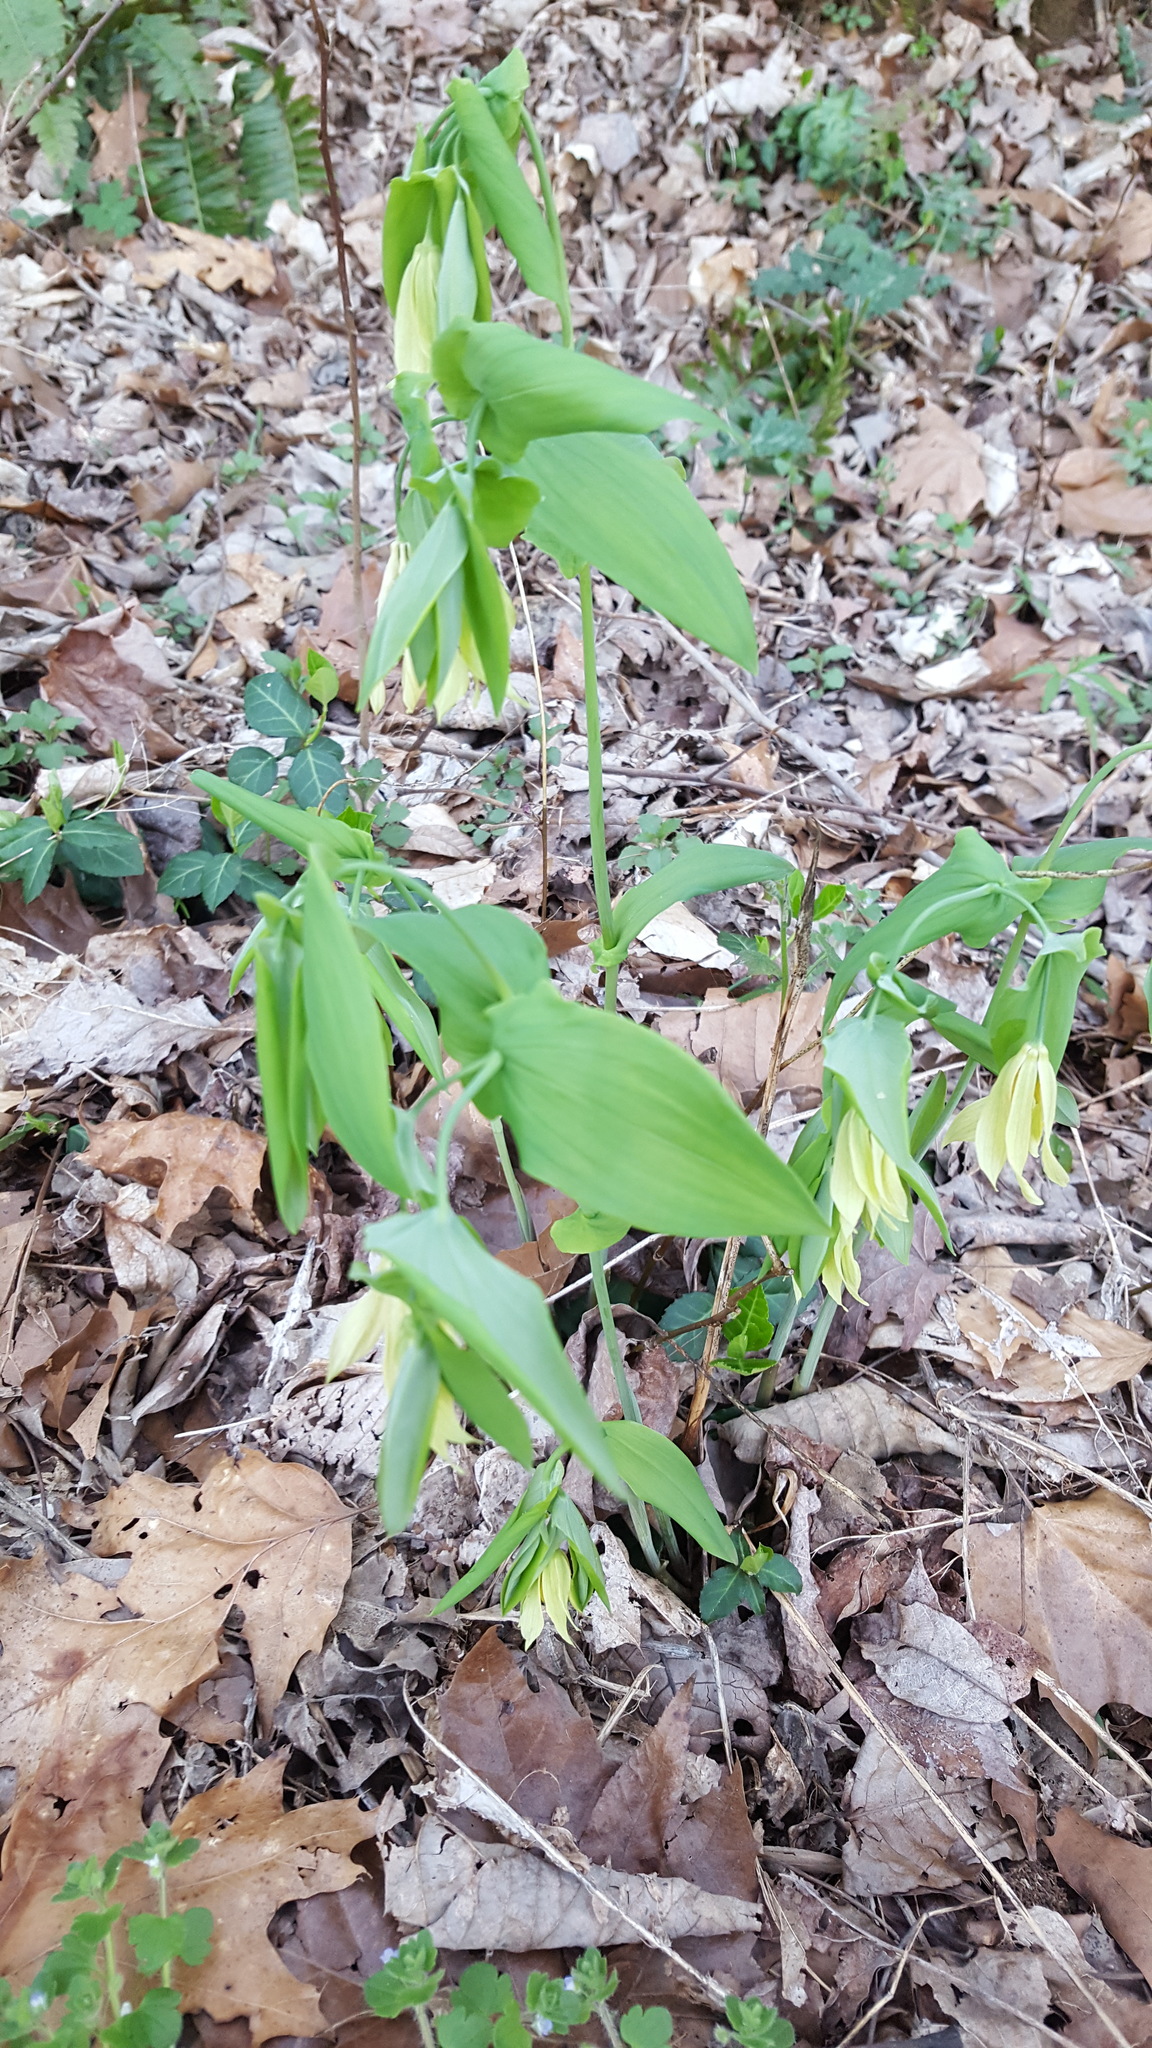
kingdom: Plantae
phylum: Tracheophyta
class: Liliopsida
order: Liliales
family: Colchicaceae
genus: Uvularia
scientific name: Uvularia grandiflora
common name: Bellwort
